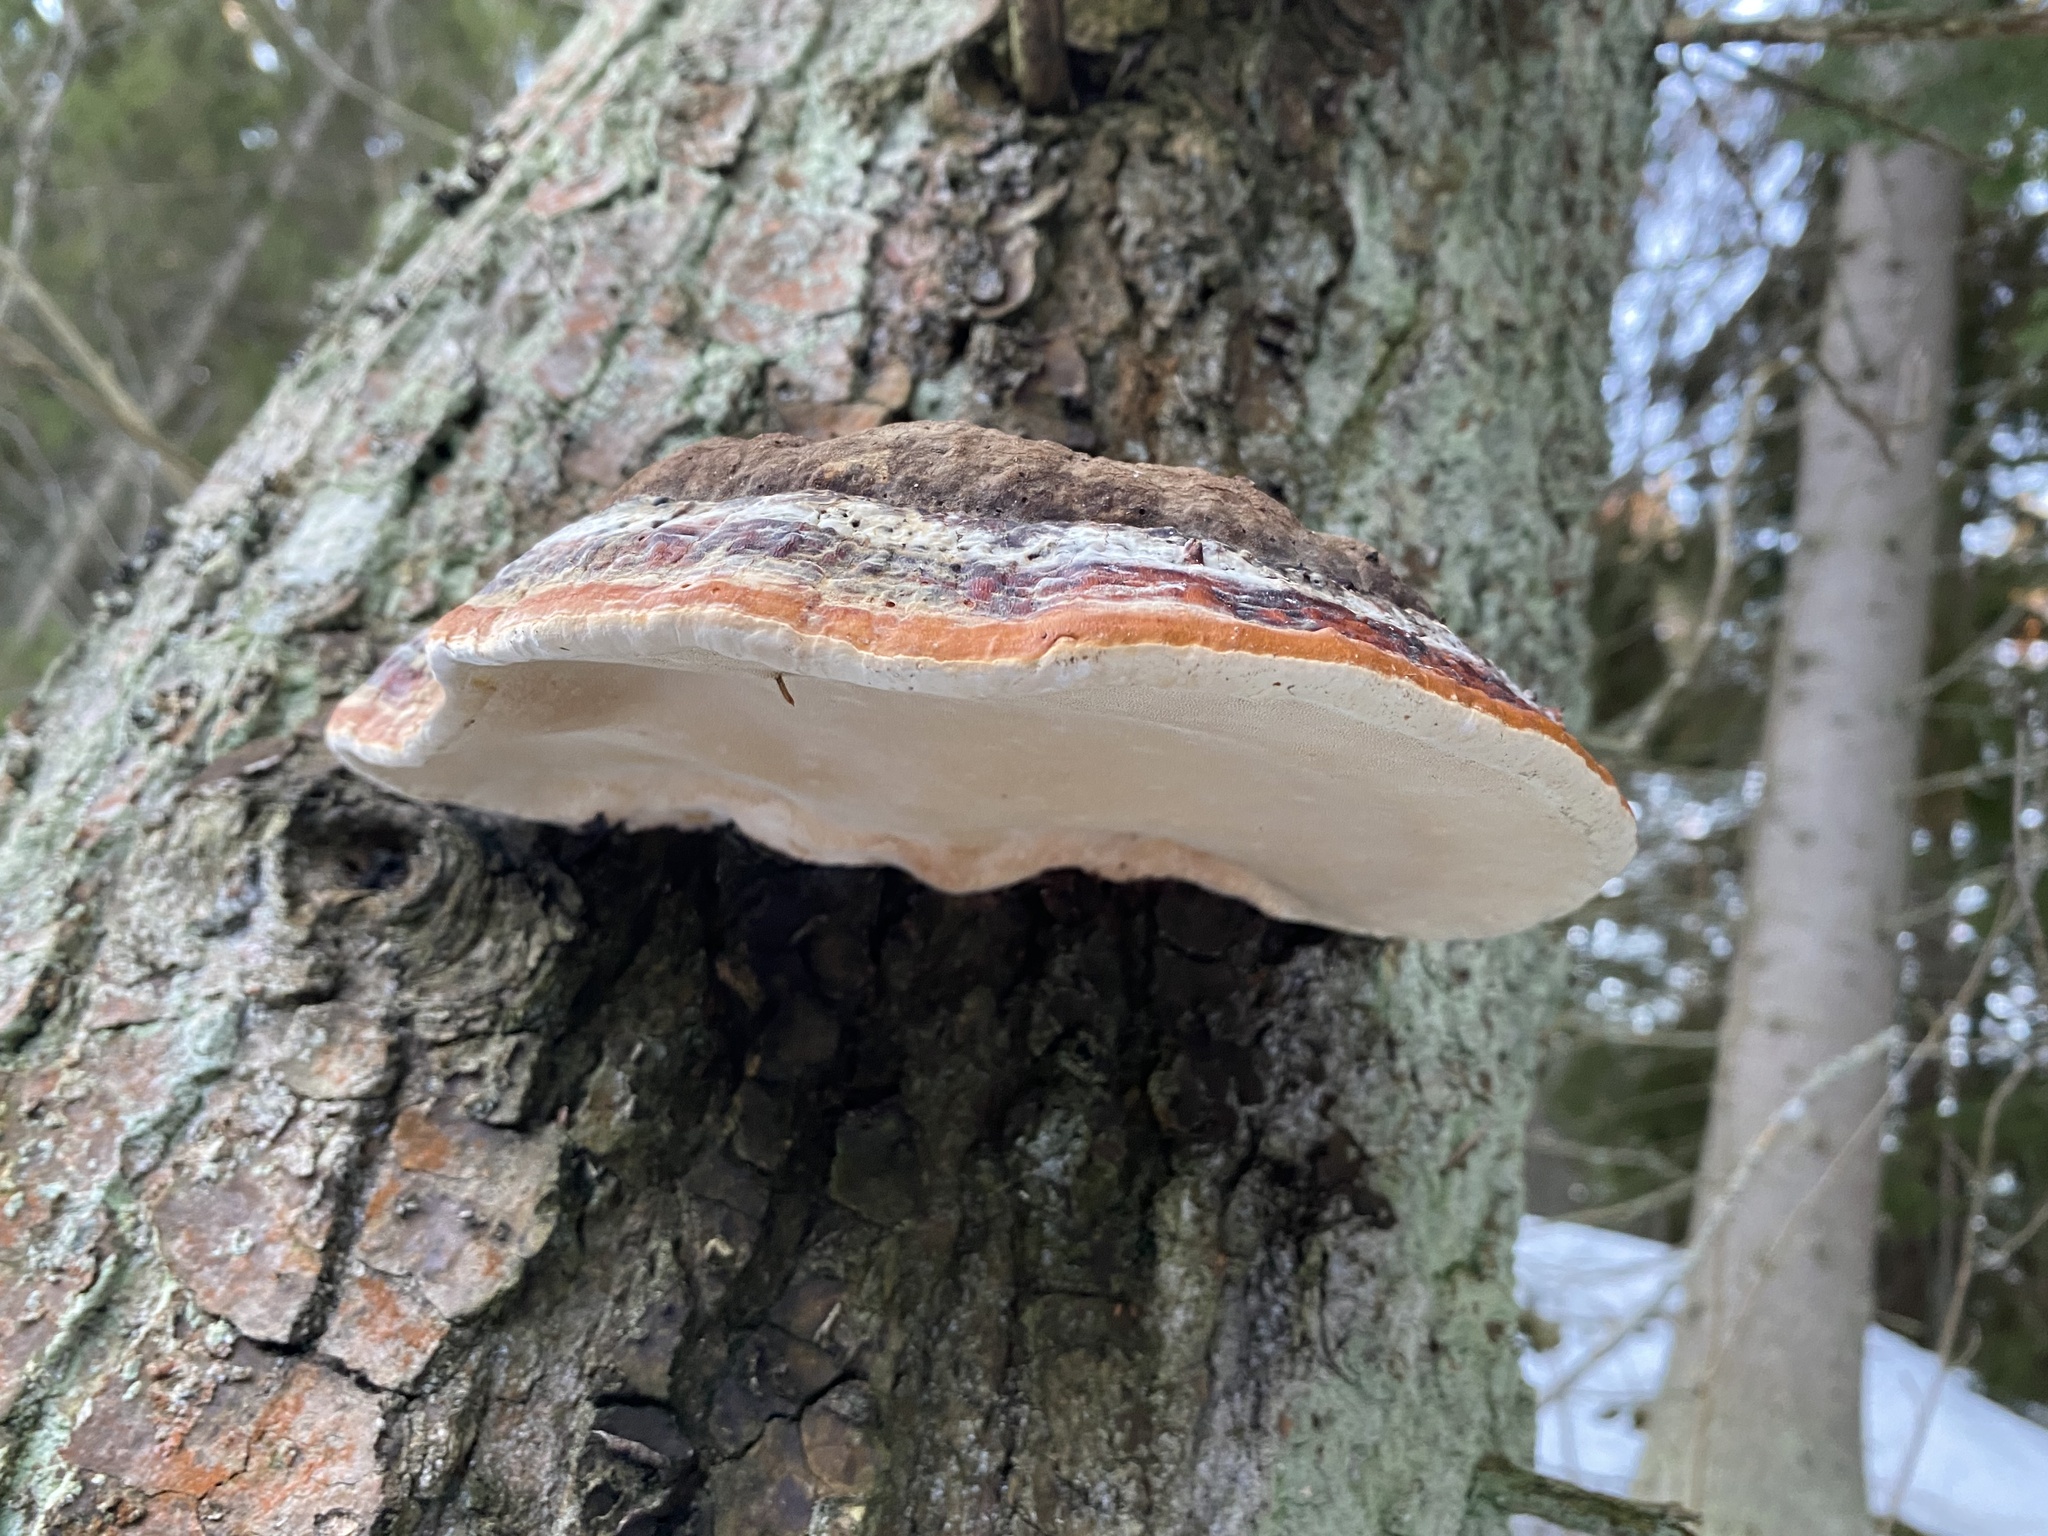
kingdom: Fungi
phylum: Basidiomycota
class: Agaricomycetes
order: Polyporales
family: Fomitopsidaceae
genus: Fomitopsis
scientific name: Fomitopsis pinicola
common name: Red-belted bracket
